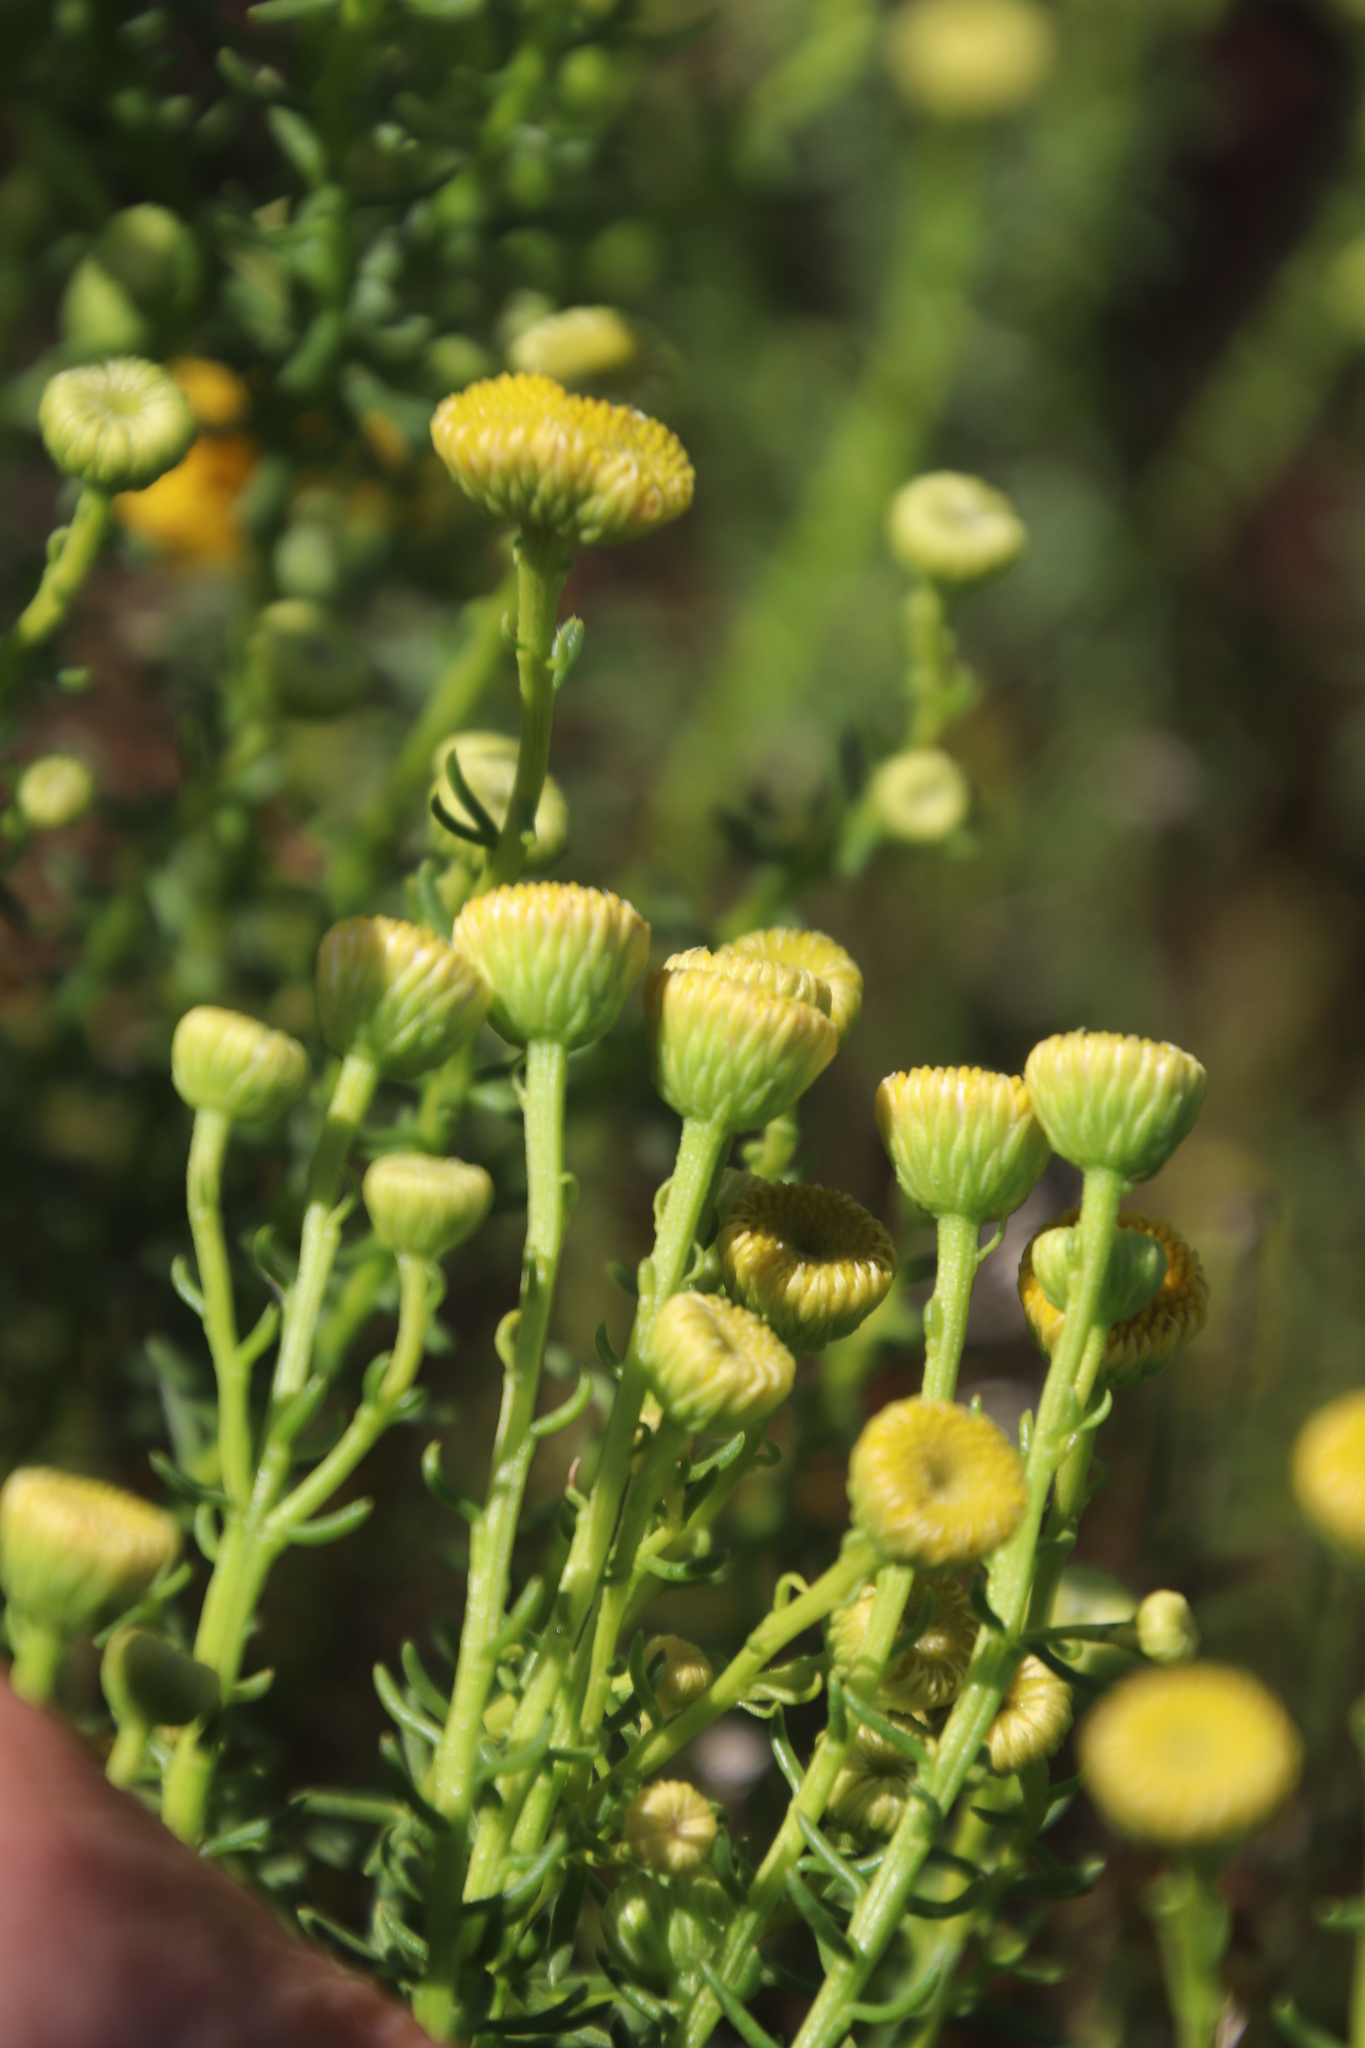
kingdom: Plantae
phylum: Tracheophyta
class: Magnoliopsida
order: Asterales
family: Asteraceae
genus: Chrysocoma
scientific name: Chrysocoma cernua
